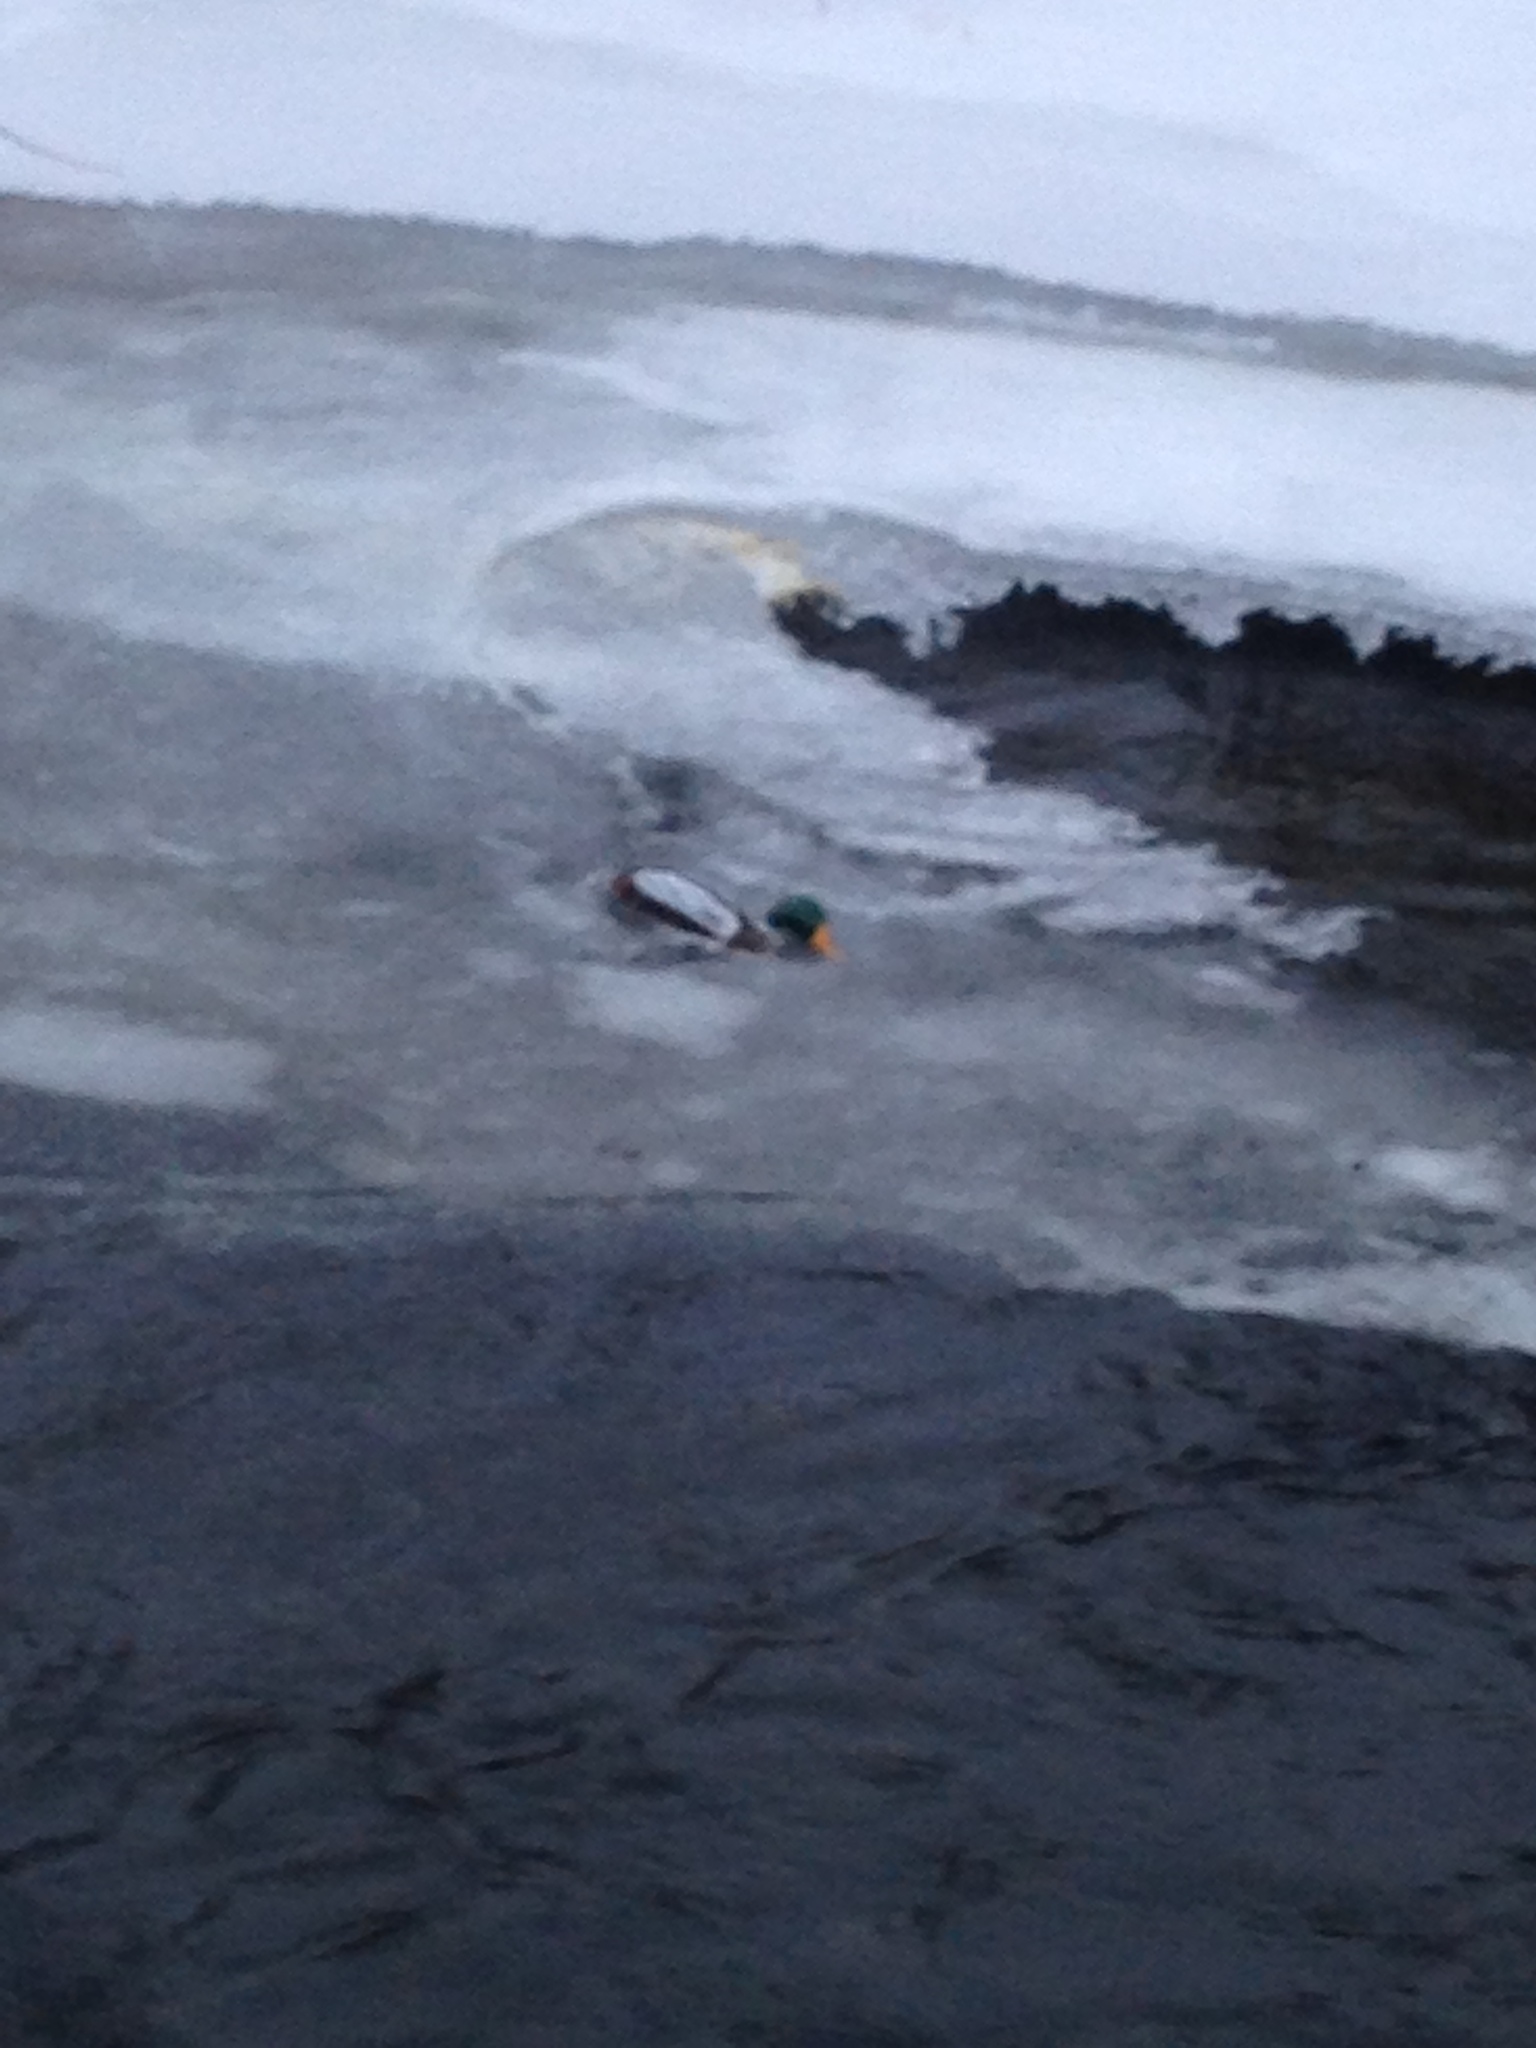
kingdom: Animalia
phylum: Chordata
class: Aves
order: Anseriformes
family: Anatidae
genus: Anas
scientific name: Anas platyrhynchos
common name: Mallard
